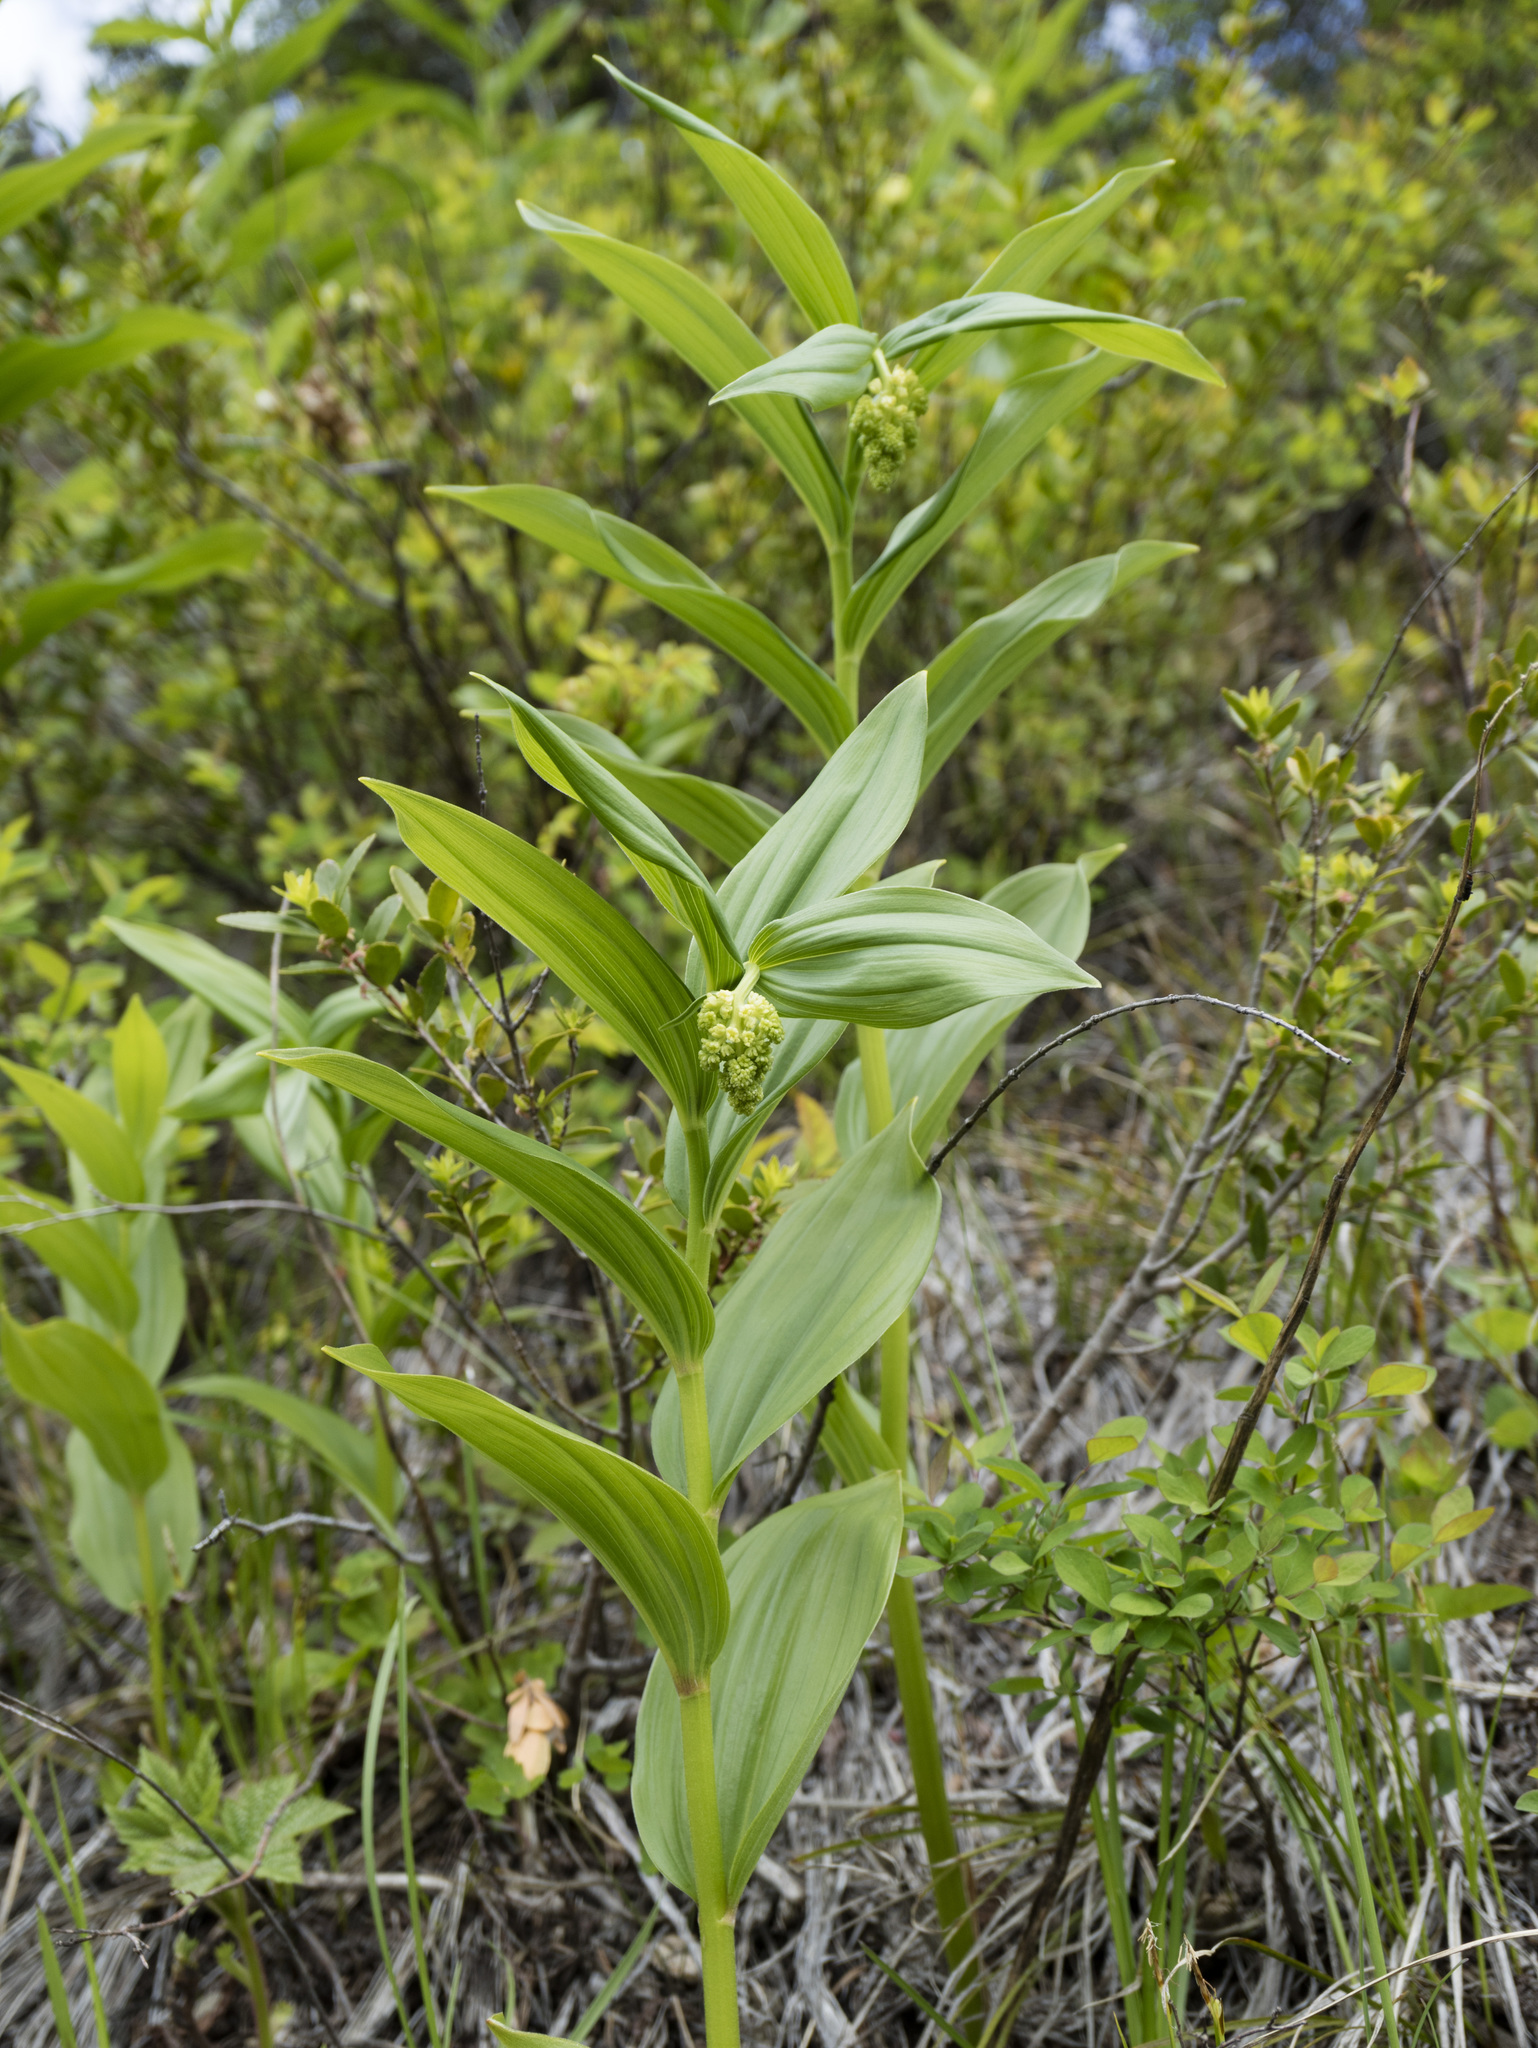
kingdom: Plantae
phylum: Tracheophyta
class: Liliopsida
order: Asparagales
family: Asparagaceae
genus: Maianthemum
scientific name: Maianthemum racemosum
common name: False spikenard
